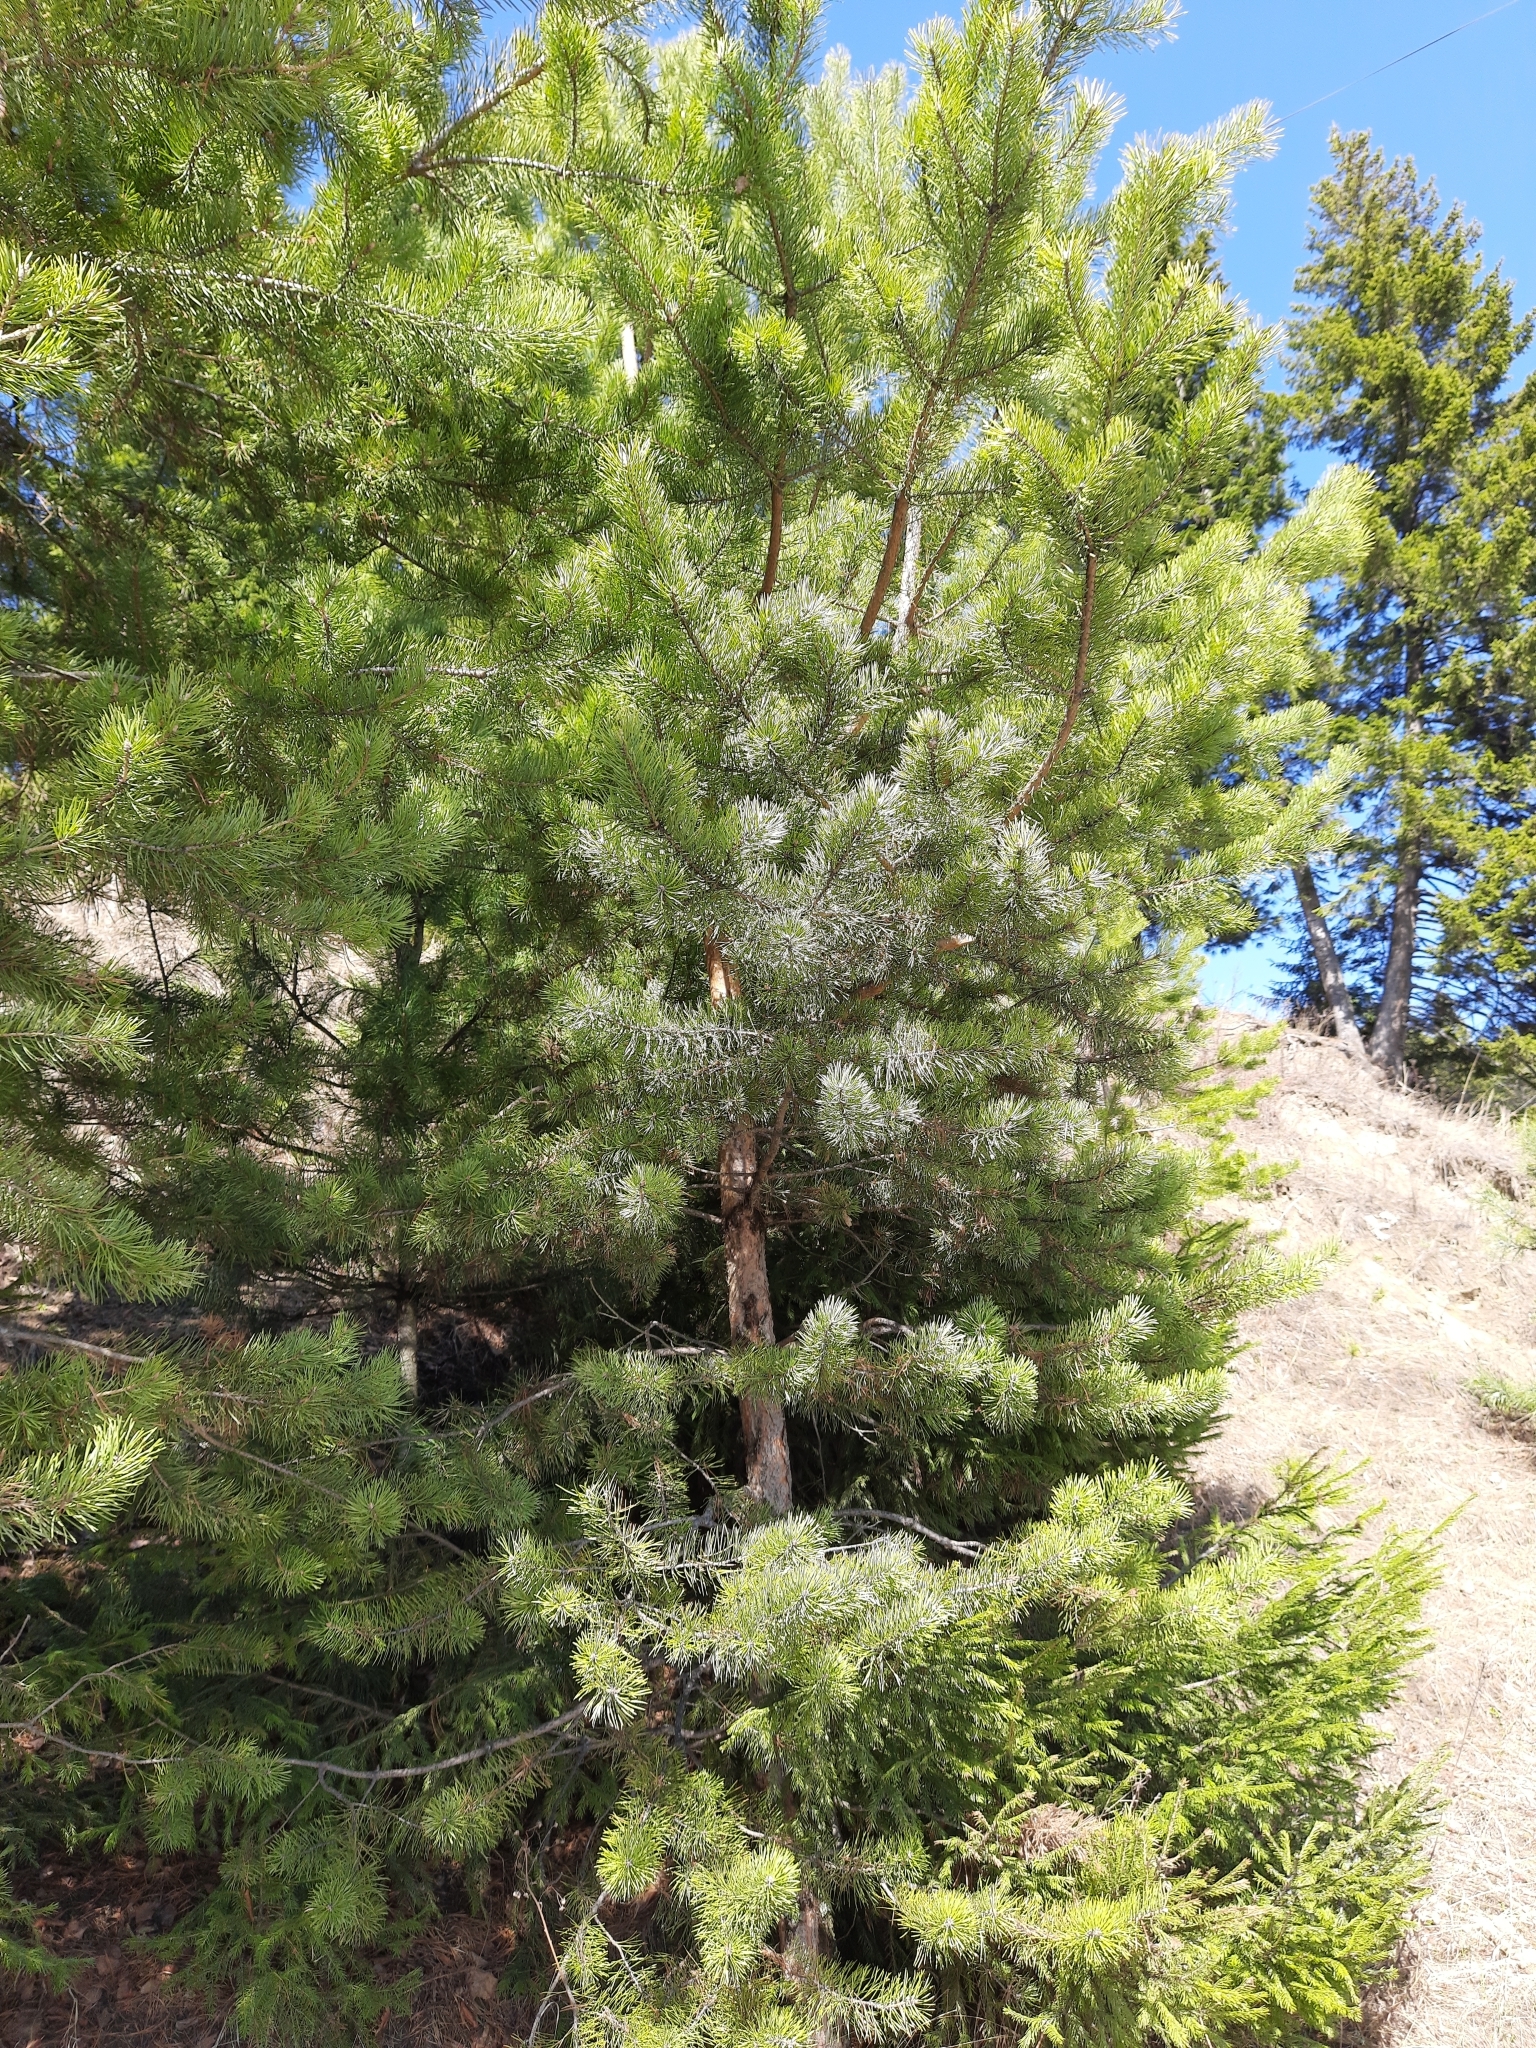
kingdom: Plantae
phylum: Tracheophyta
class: Pinopsida
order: Pinales
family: Pinaceae
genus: Pinus
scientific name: Pinus sylvestris
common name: Scots pine
